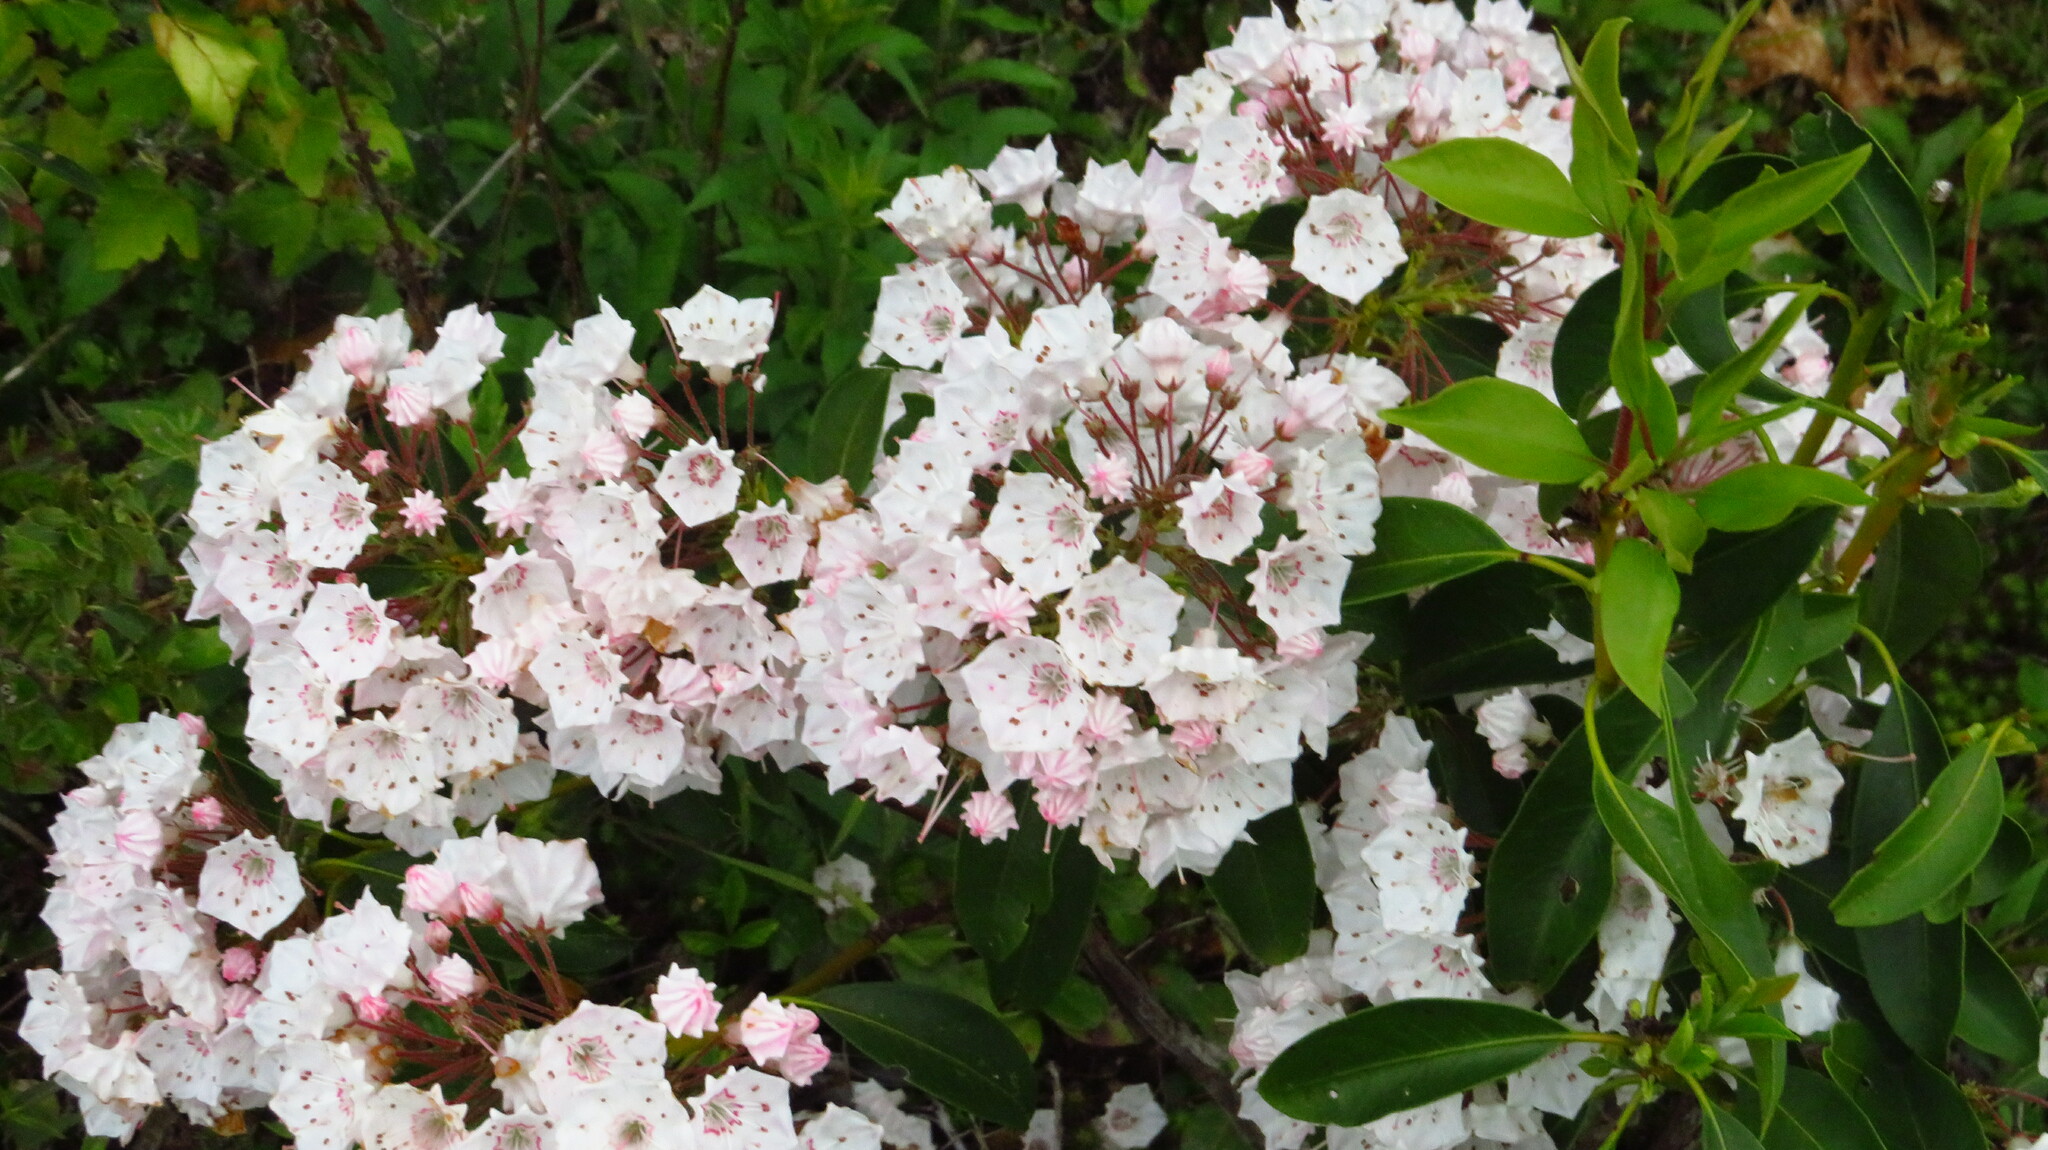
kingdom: Plantae
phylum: Tracheophyta
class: Magnoliopsida
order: Ericales
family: Ericaceae
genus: Kalmia
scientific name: Kalmia latifolia
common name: Mountain-laurel
